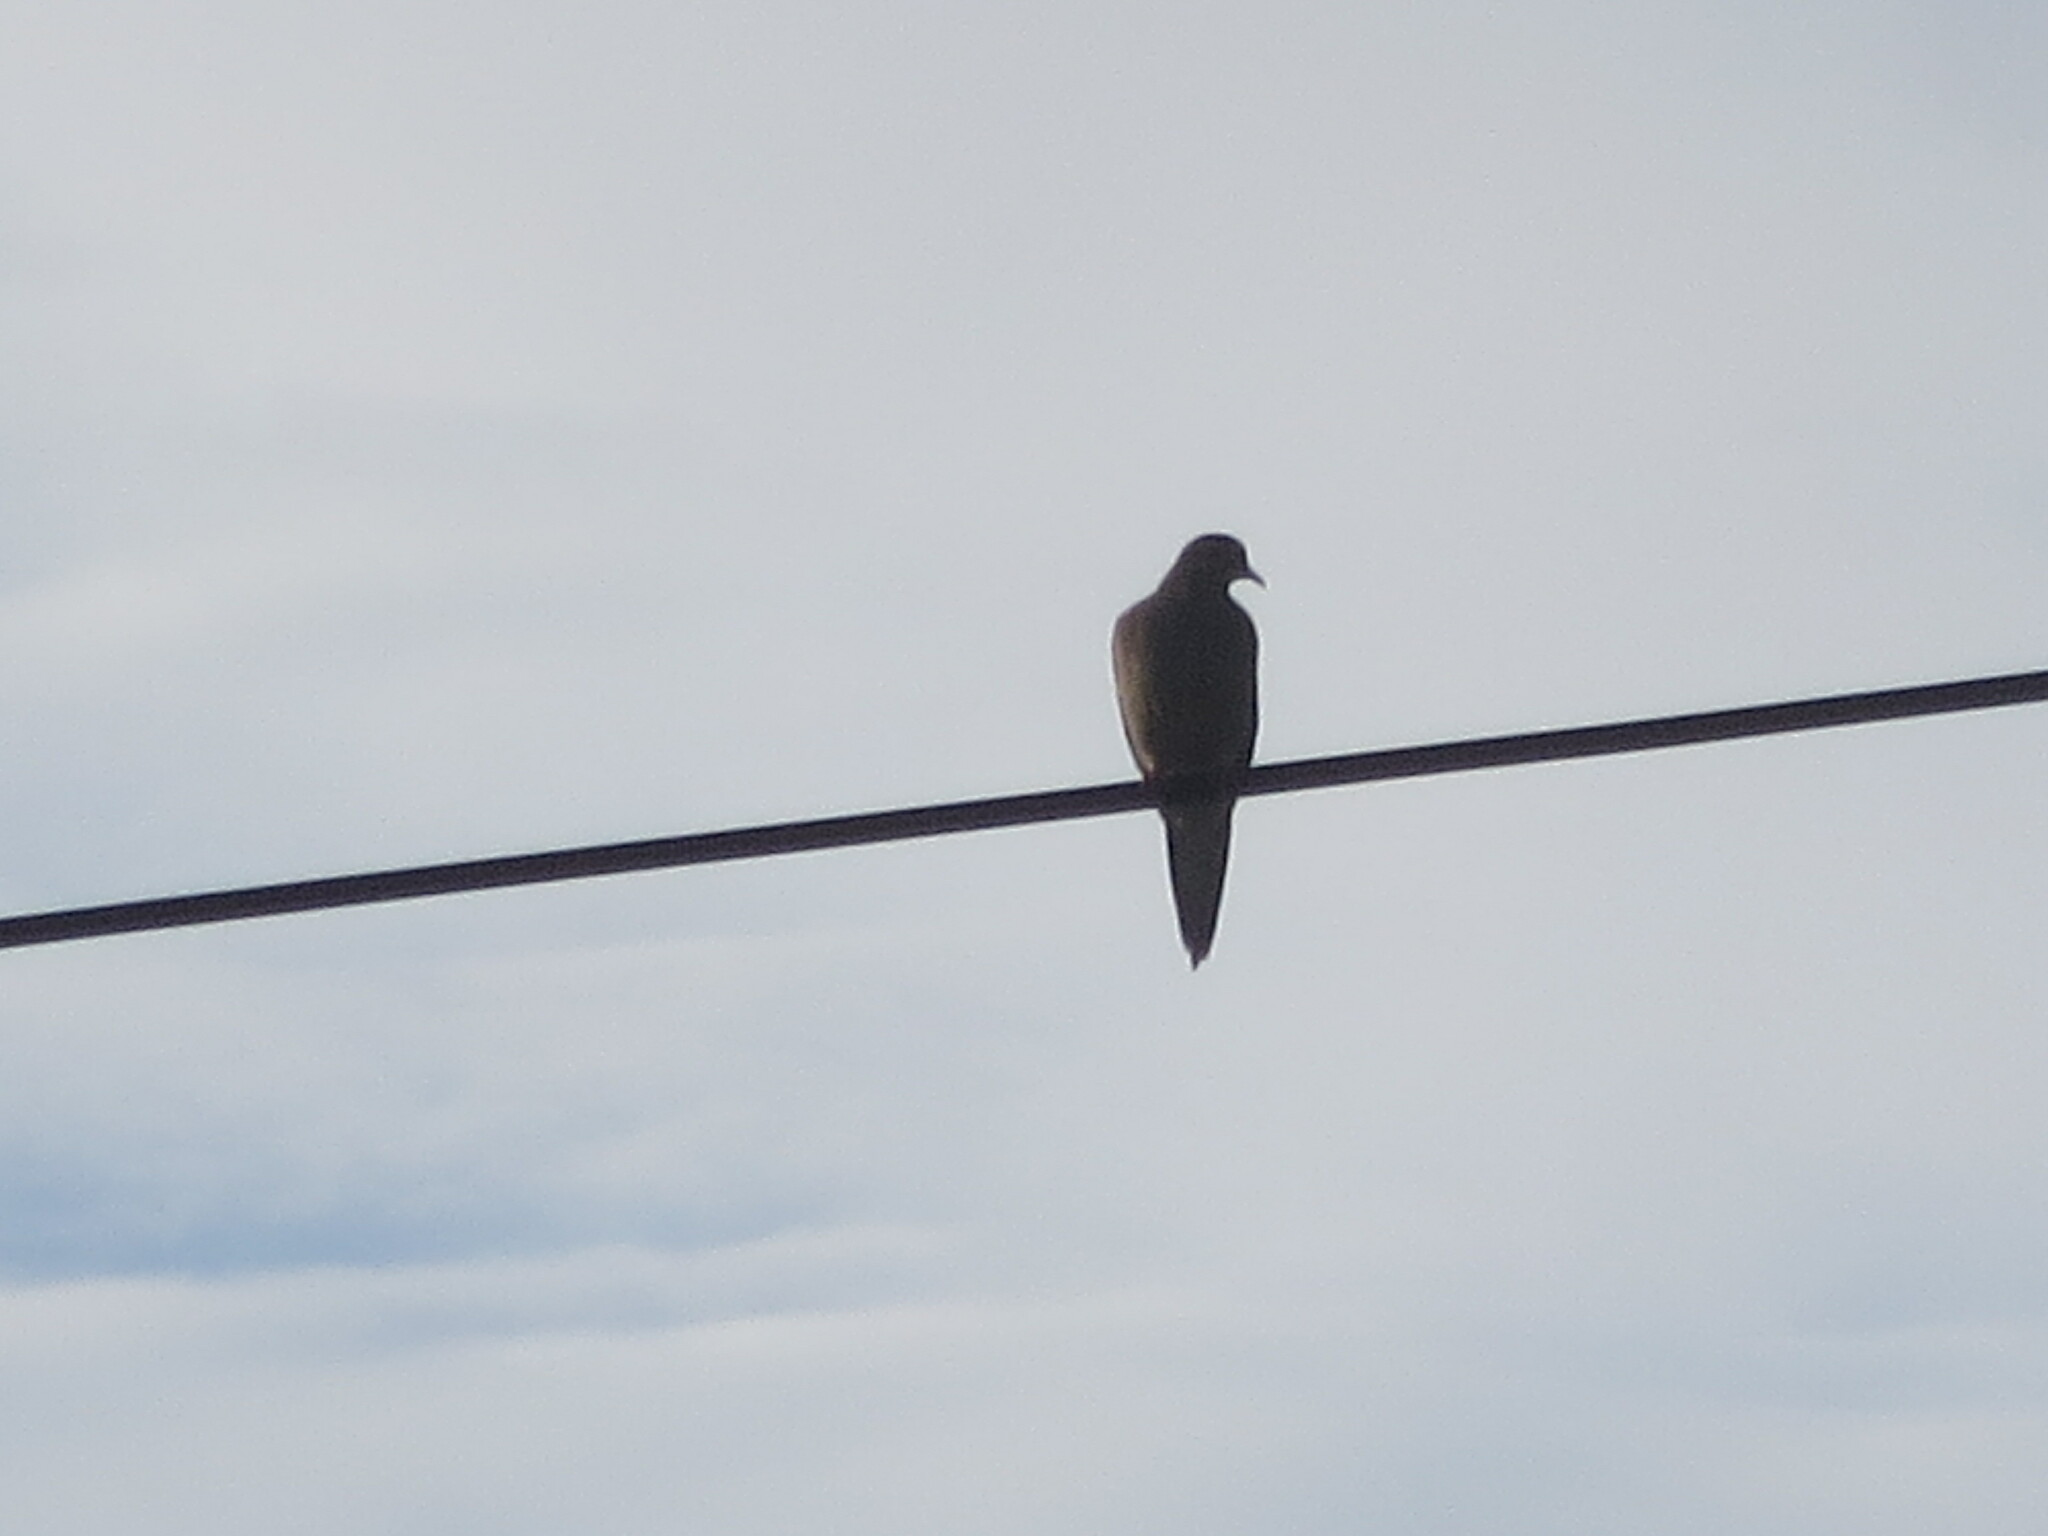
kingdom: Animalia
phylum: Chordata
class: Aves
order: Columbiformes
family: Columbidae
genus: Zenaida
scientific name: Zenaida macroura
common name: Mourning dove
